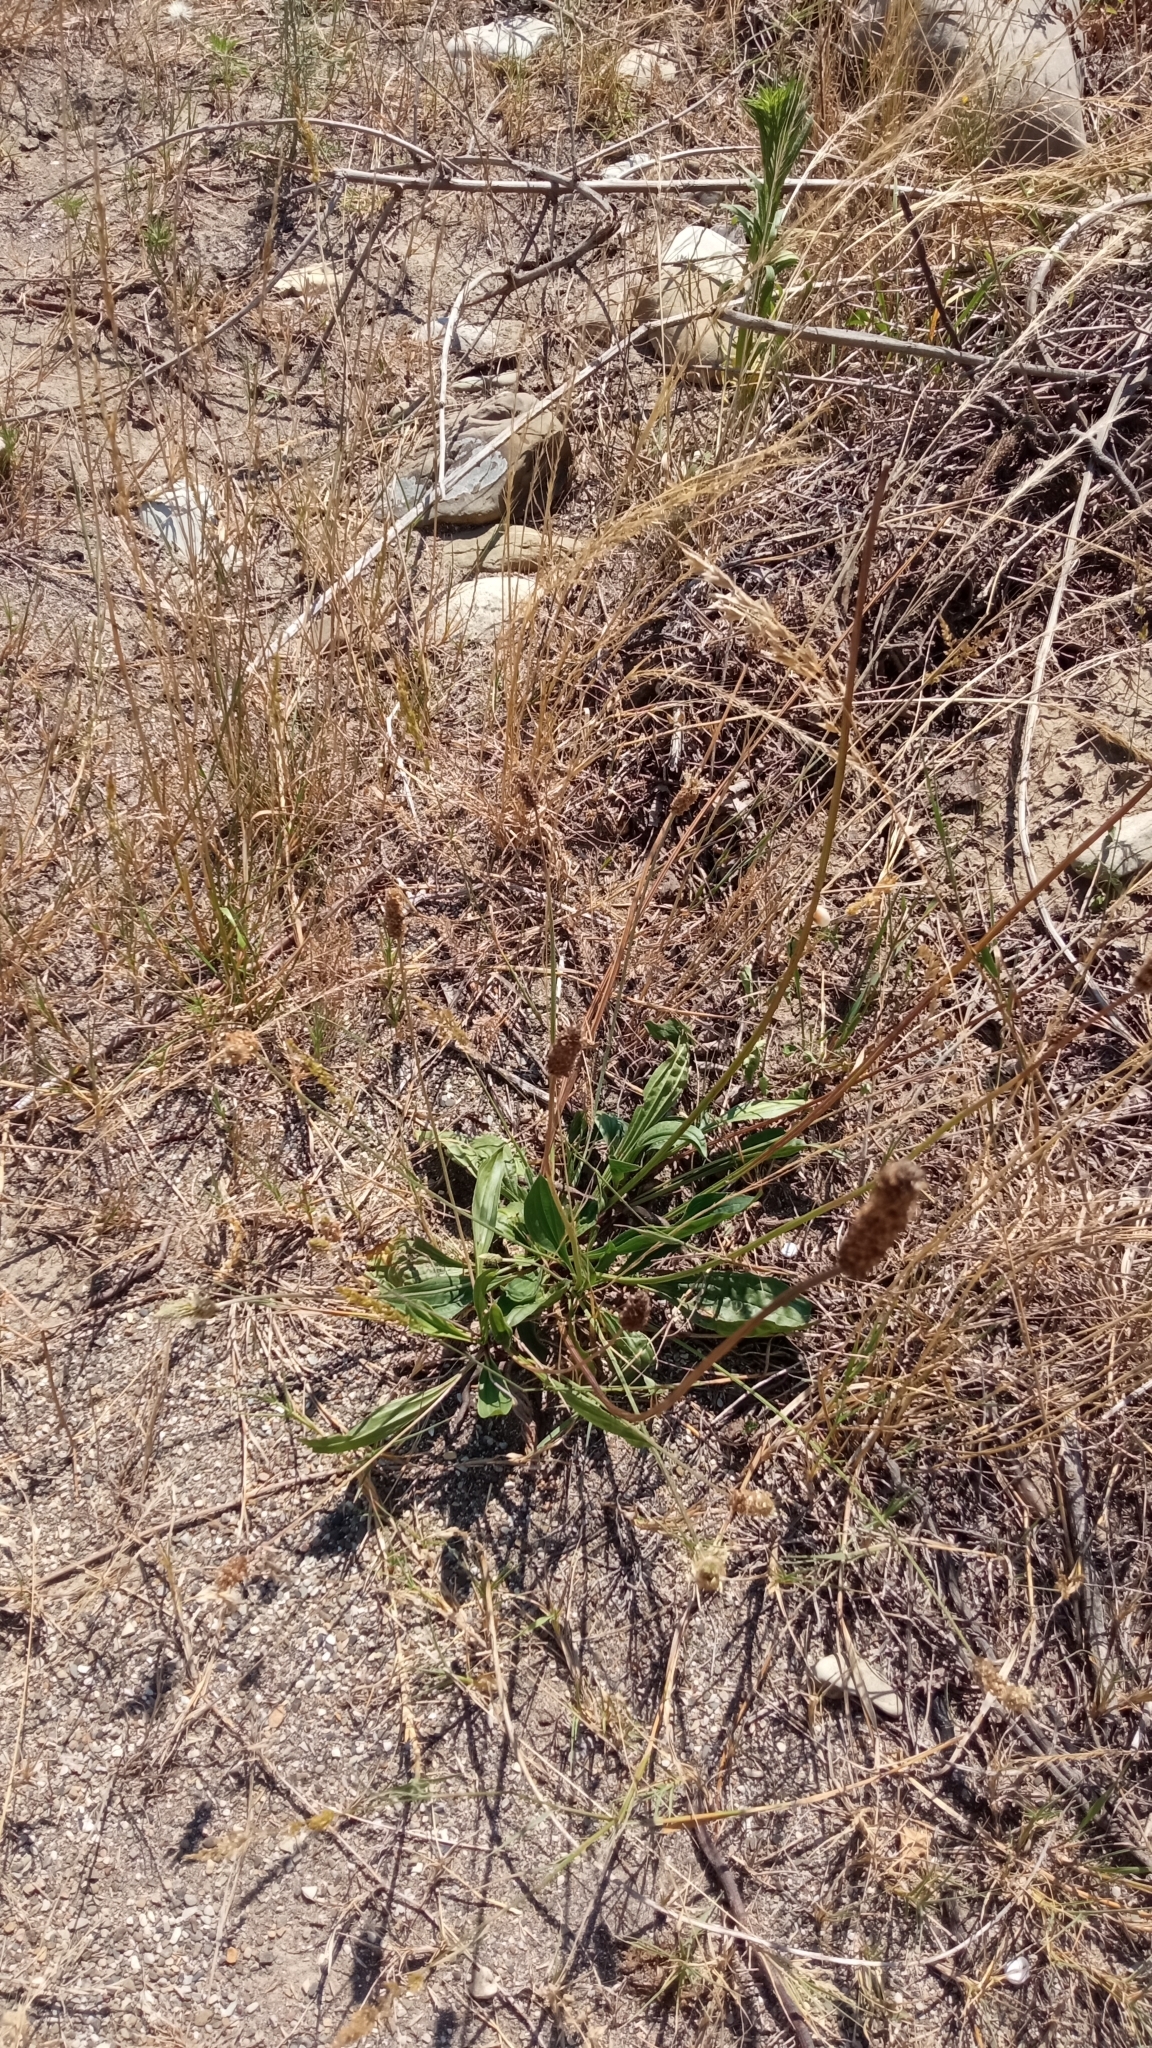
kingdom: Plantae
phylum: Tracheophyta
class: Magnoliopsida
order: Lamiales
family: Plantaginaceae
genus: Plantago
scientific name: Plantago major
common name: Common plantain
